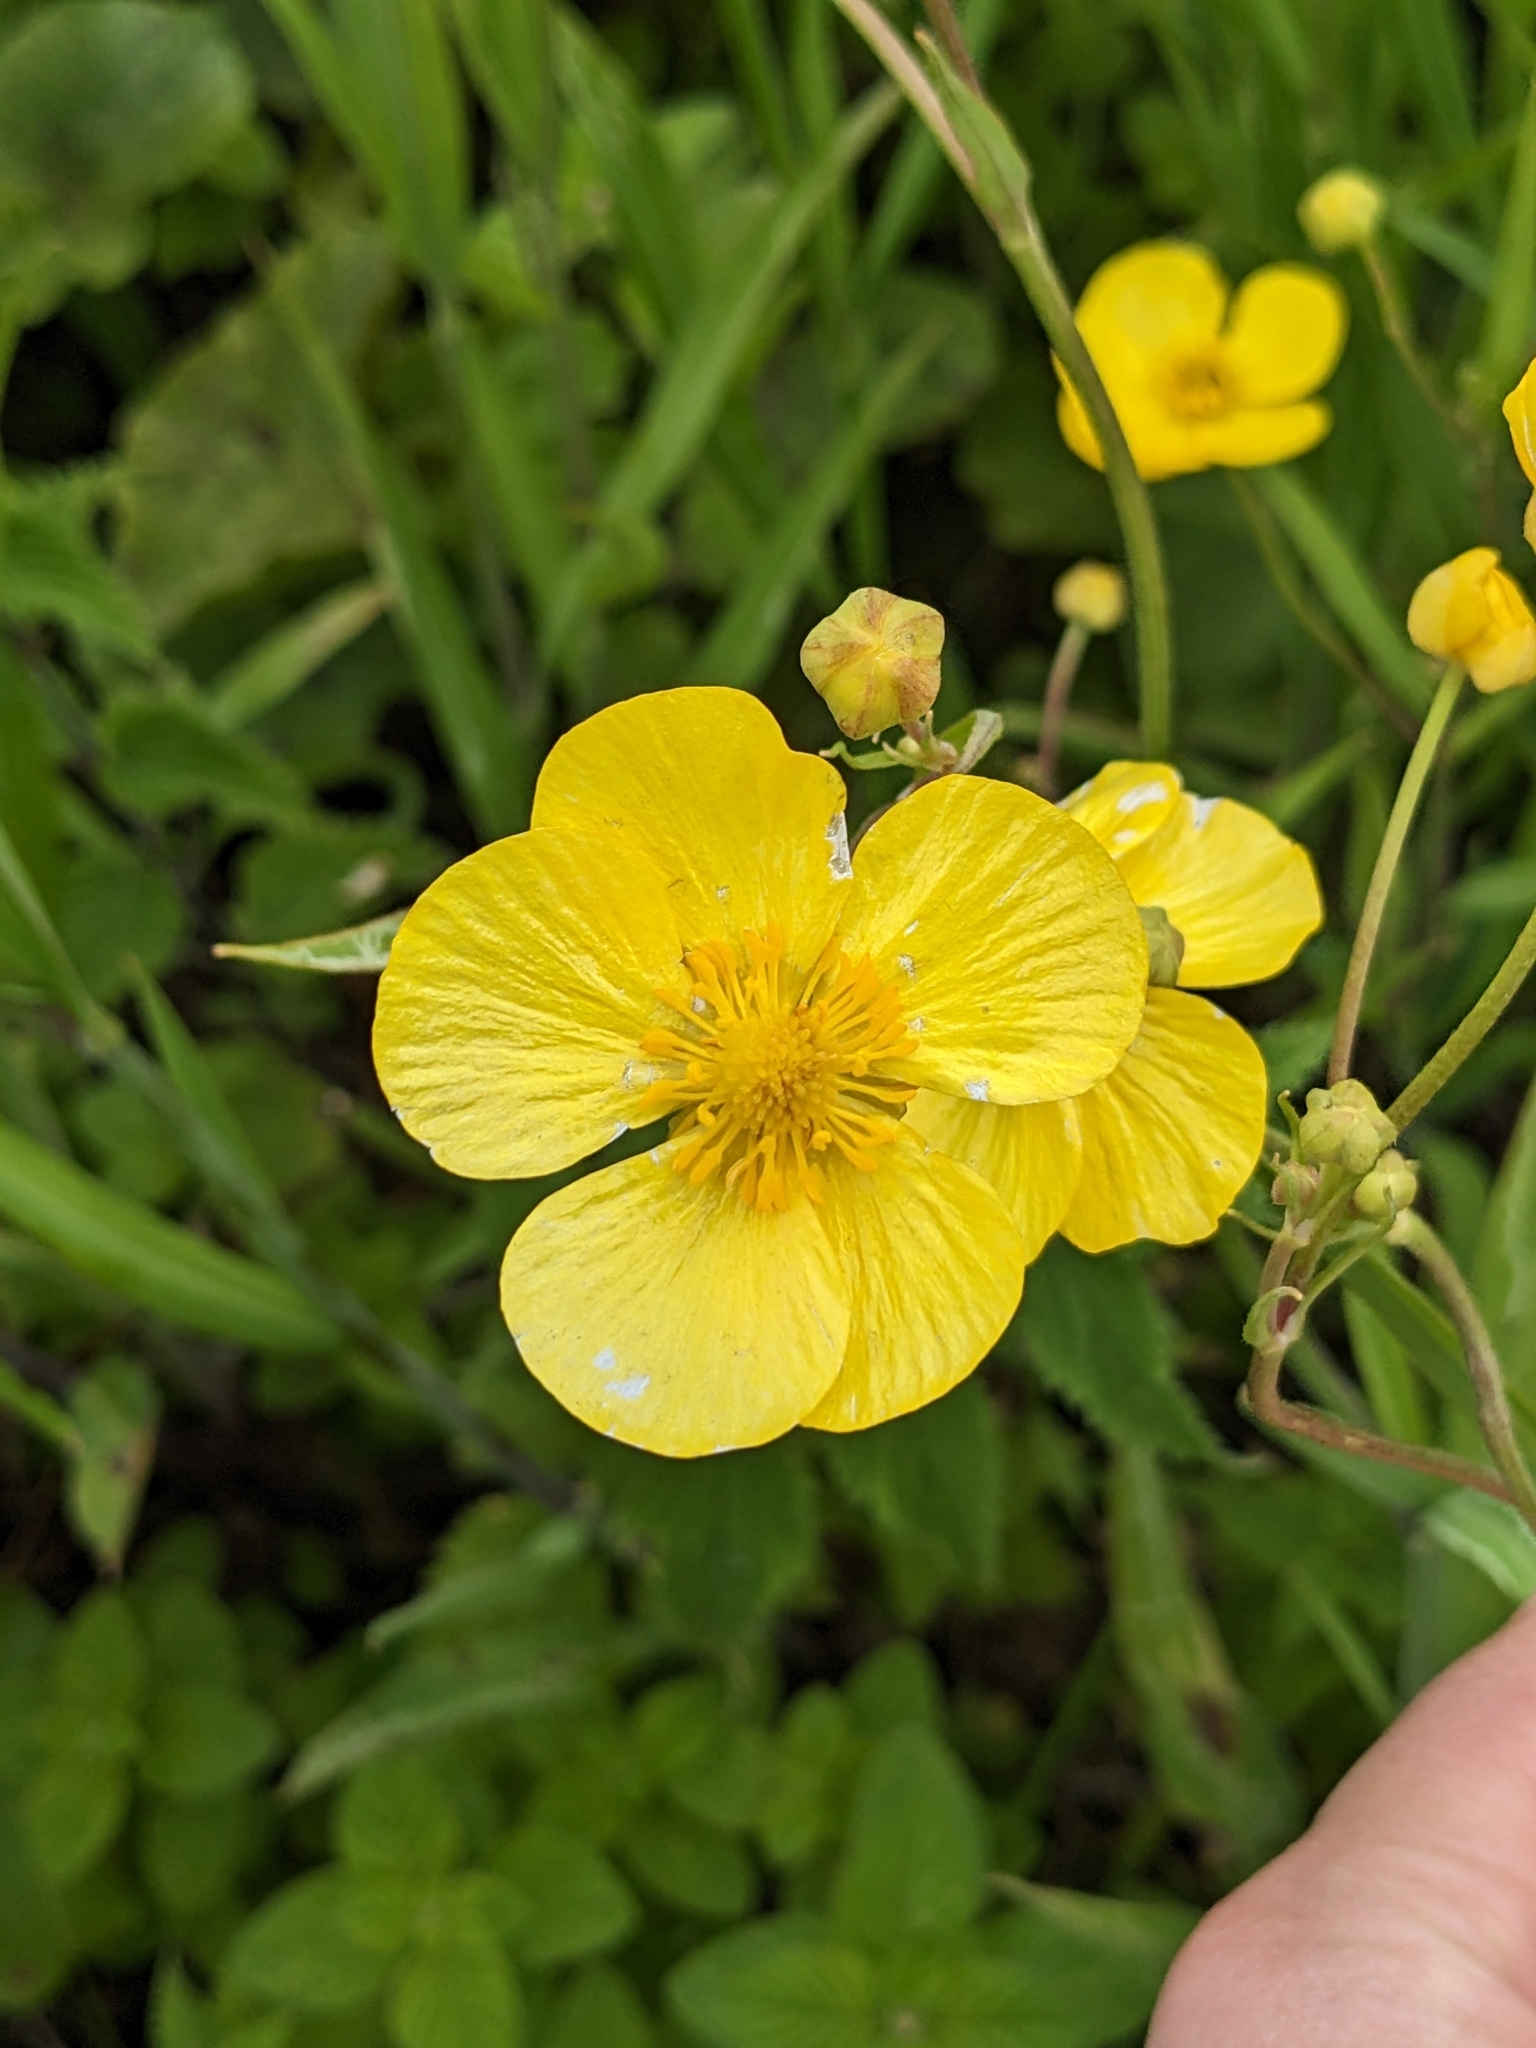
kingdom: Plantae
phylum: Tracheophyta
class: Magnoliopsida
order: Ranunculales
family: Ranunculaceae
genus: Ranunculus
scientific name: Ranunculus lingua
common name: Greater spearwort
